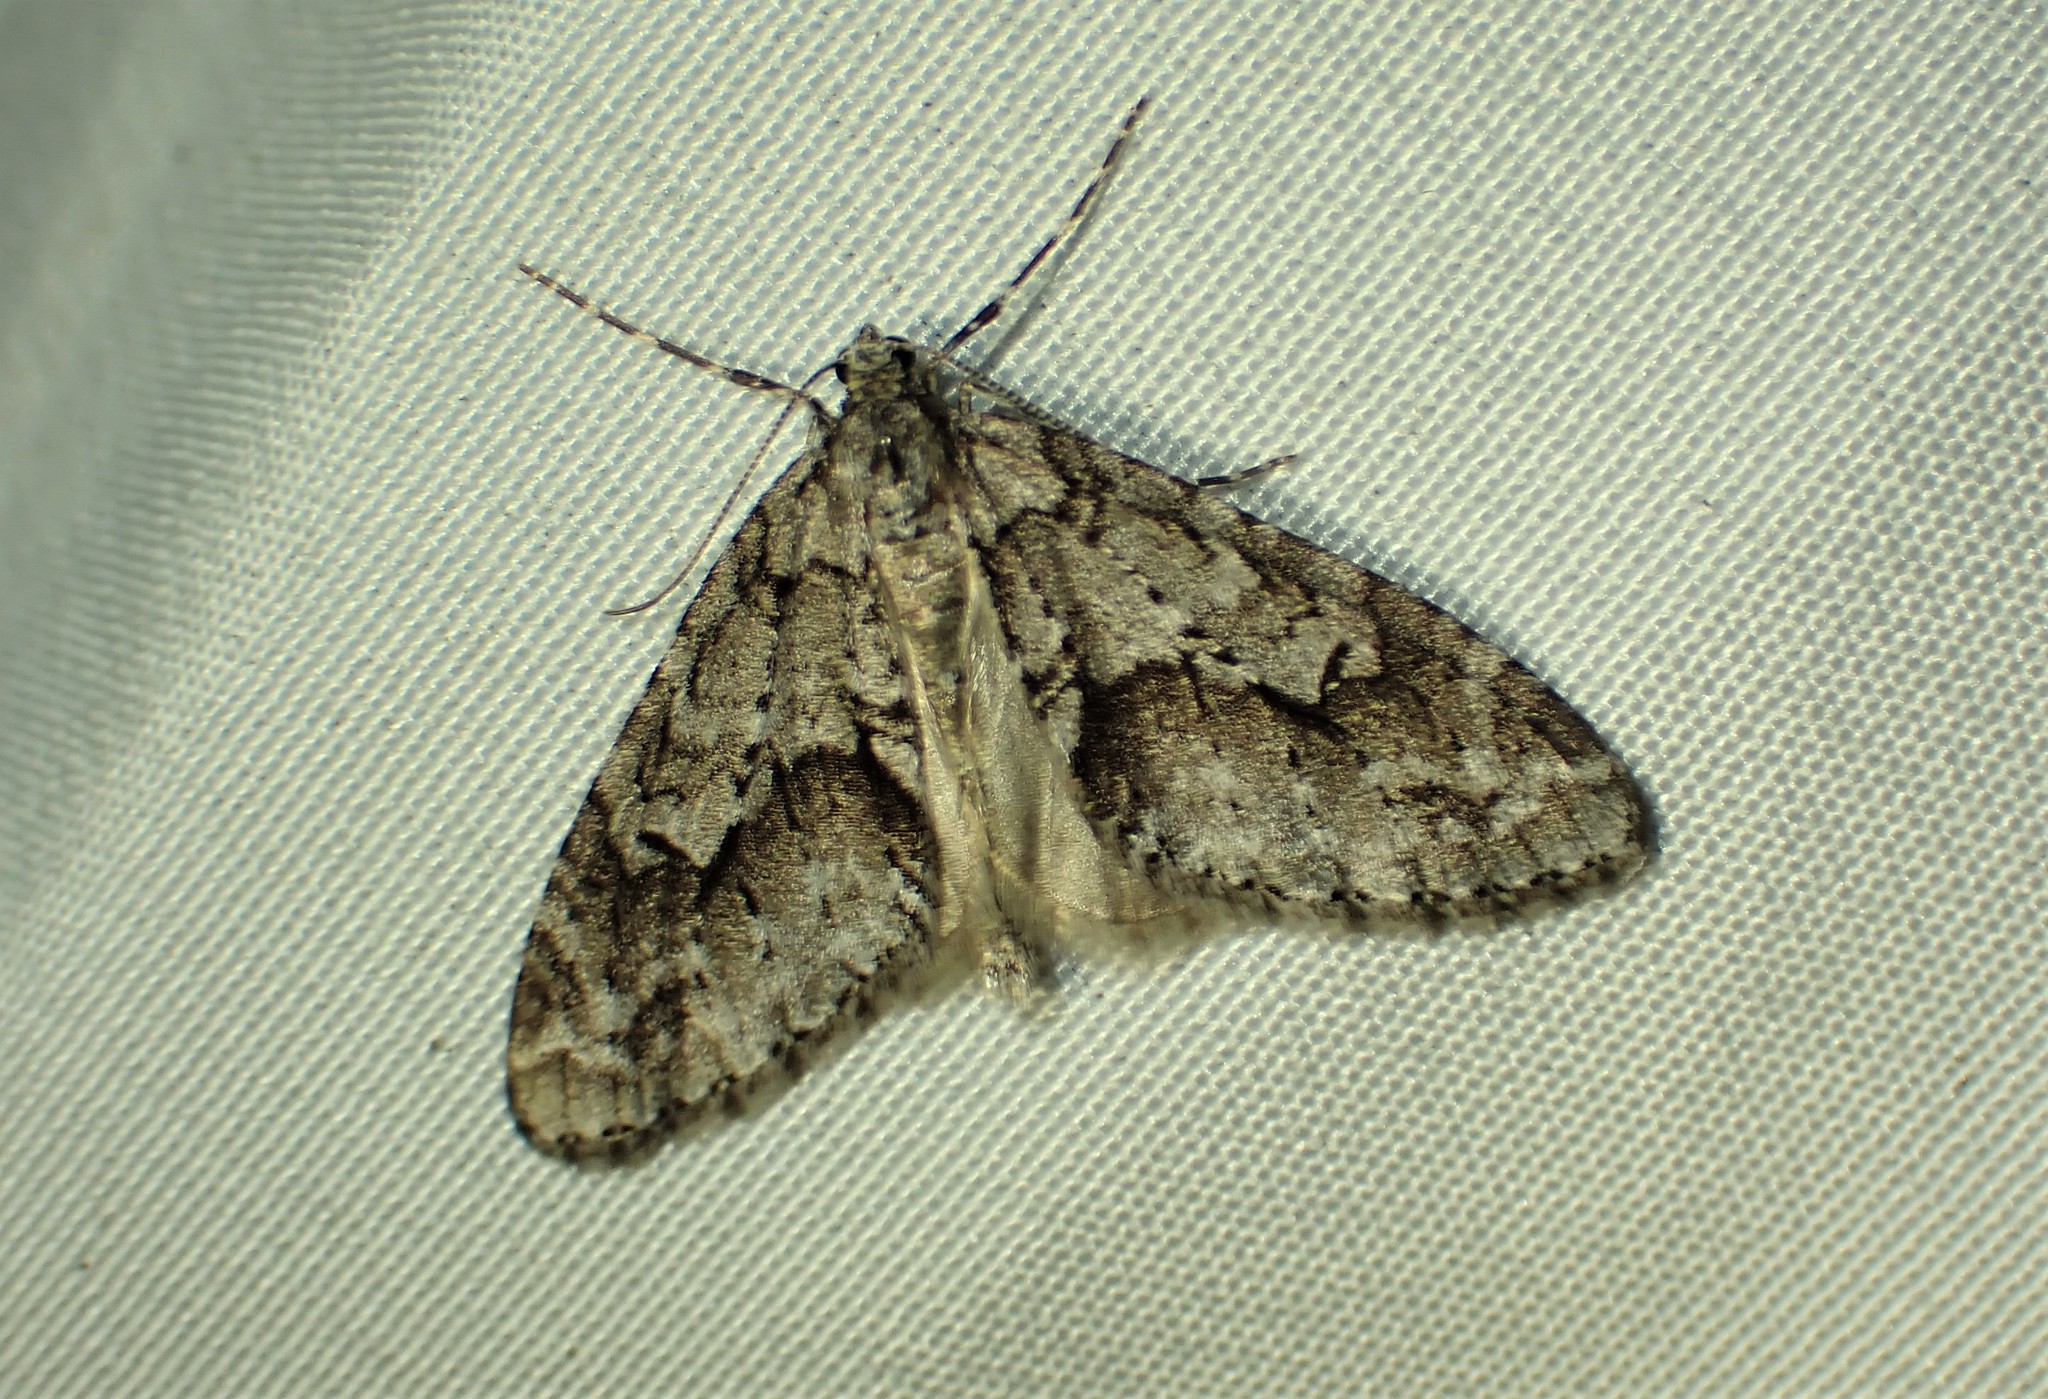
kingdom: Animalia
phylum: Arthropoda
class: Insecta
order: Lepidoptera
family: Geometridae
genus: Cladara
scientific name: Cladara limitaria
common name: Mottled gray carpet
